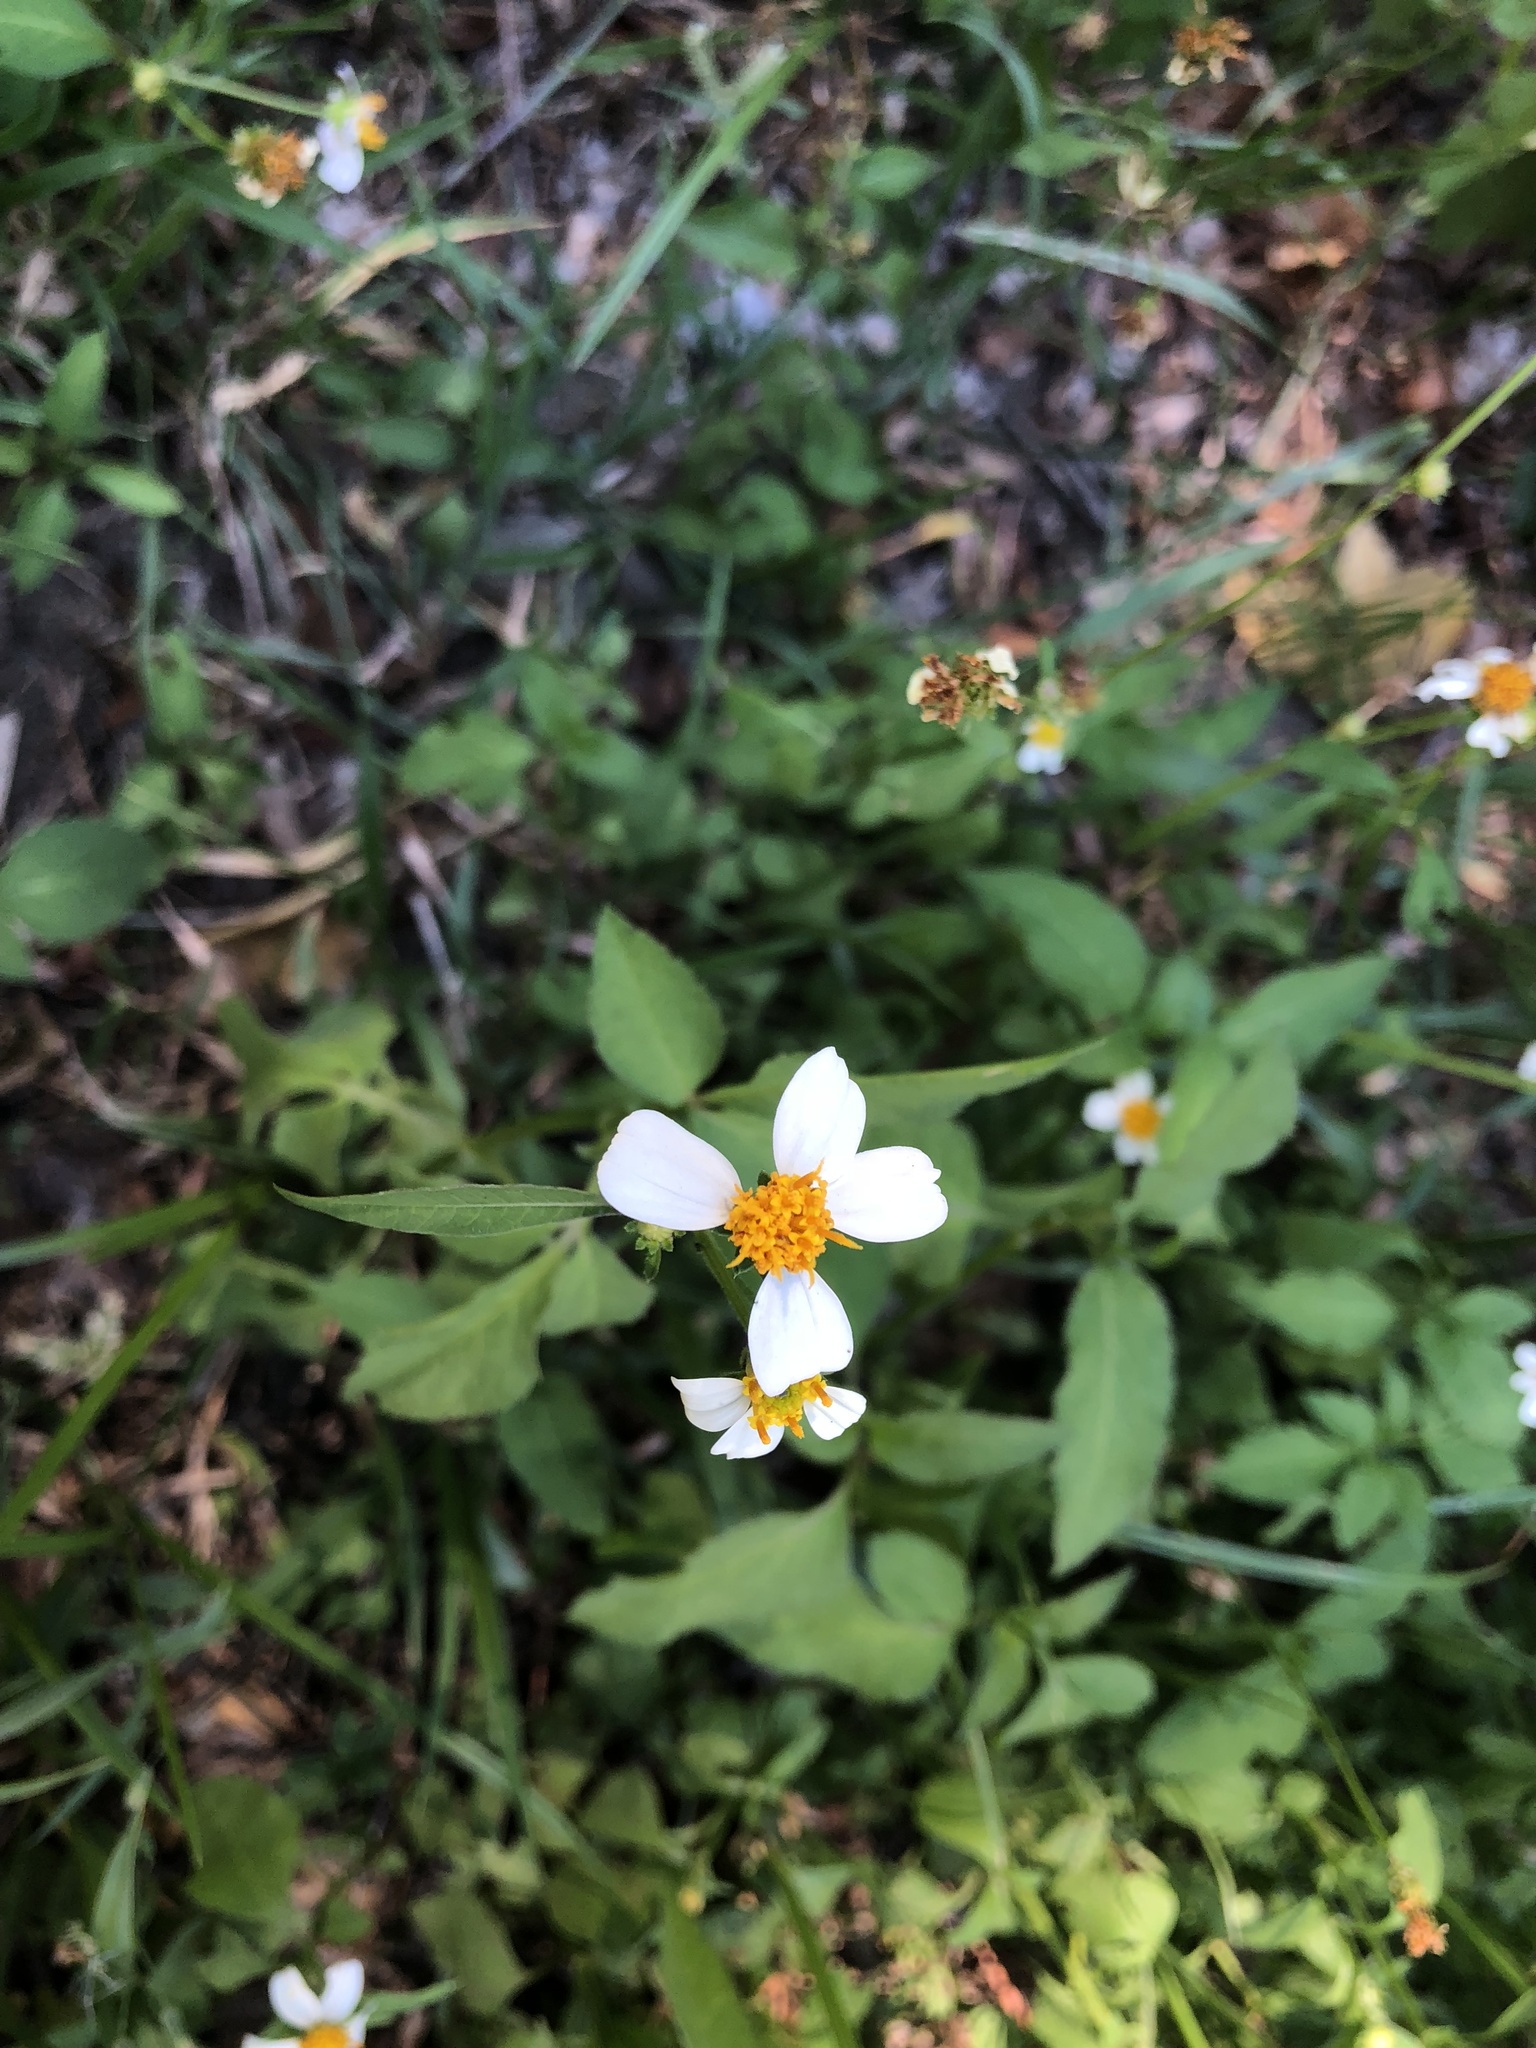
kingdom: Plantae
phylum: Tracheophyta
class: Magnoliopsida
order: Asterales
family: Asteraceae
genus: Bidens
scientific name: Bidens alba
